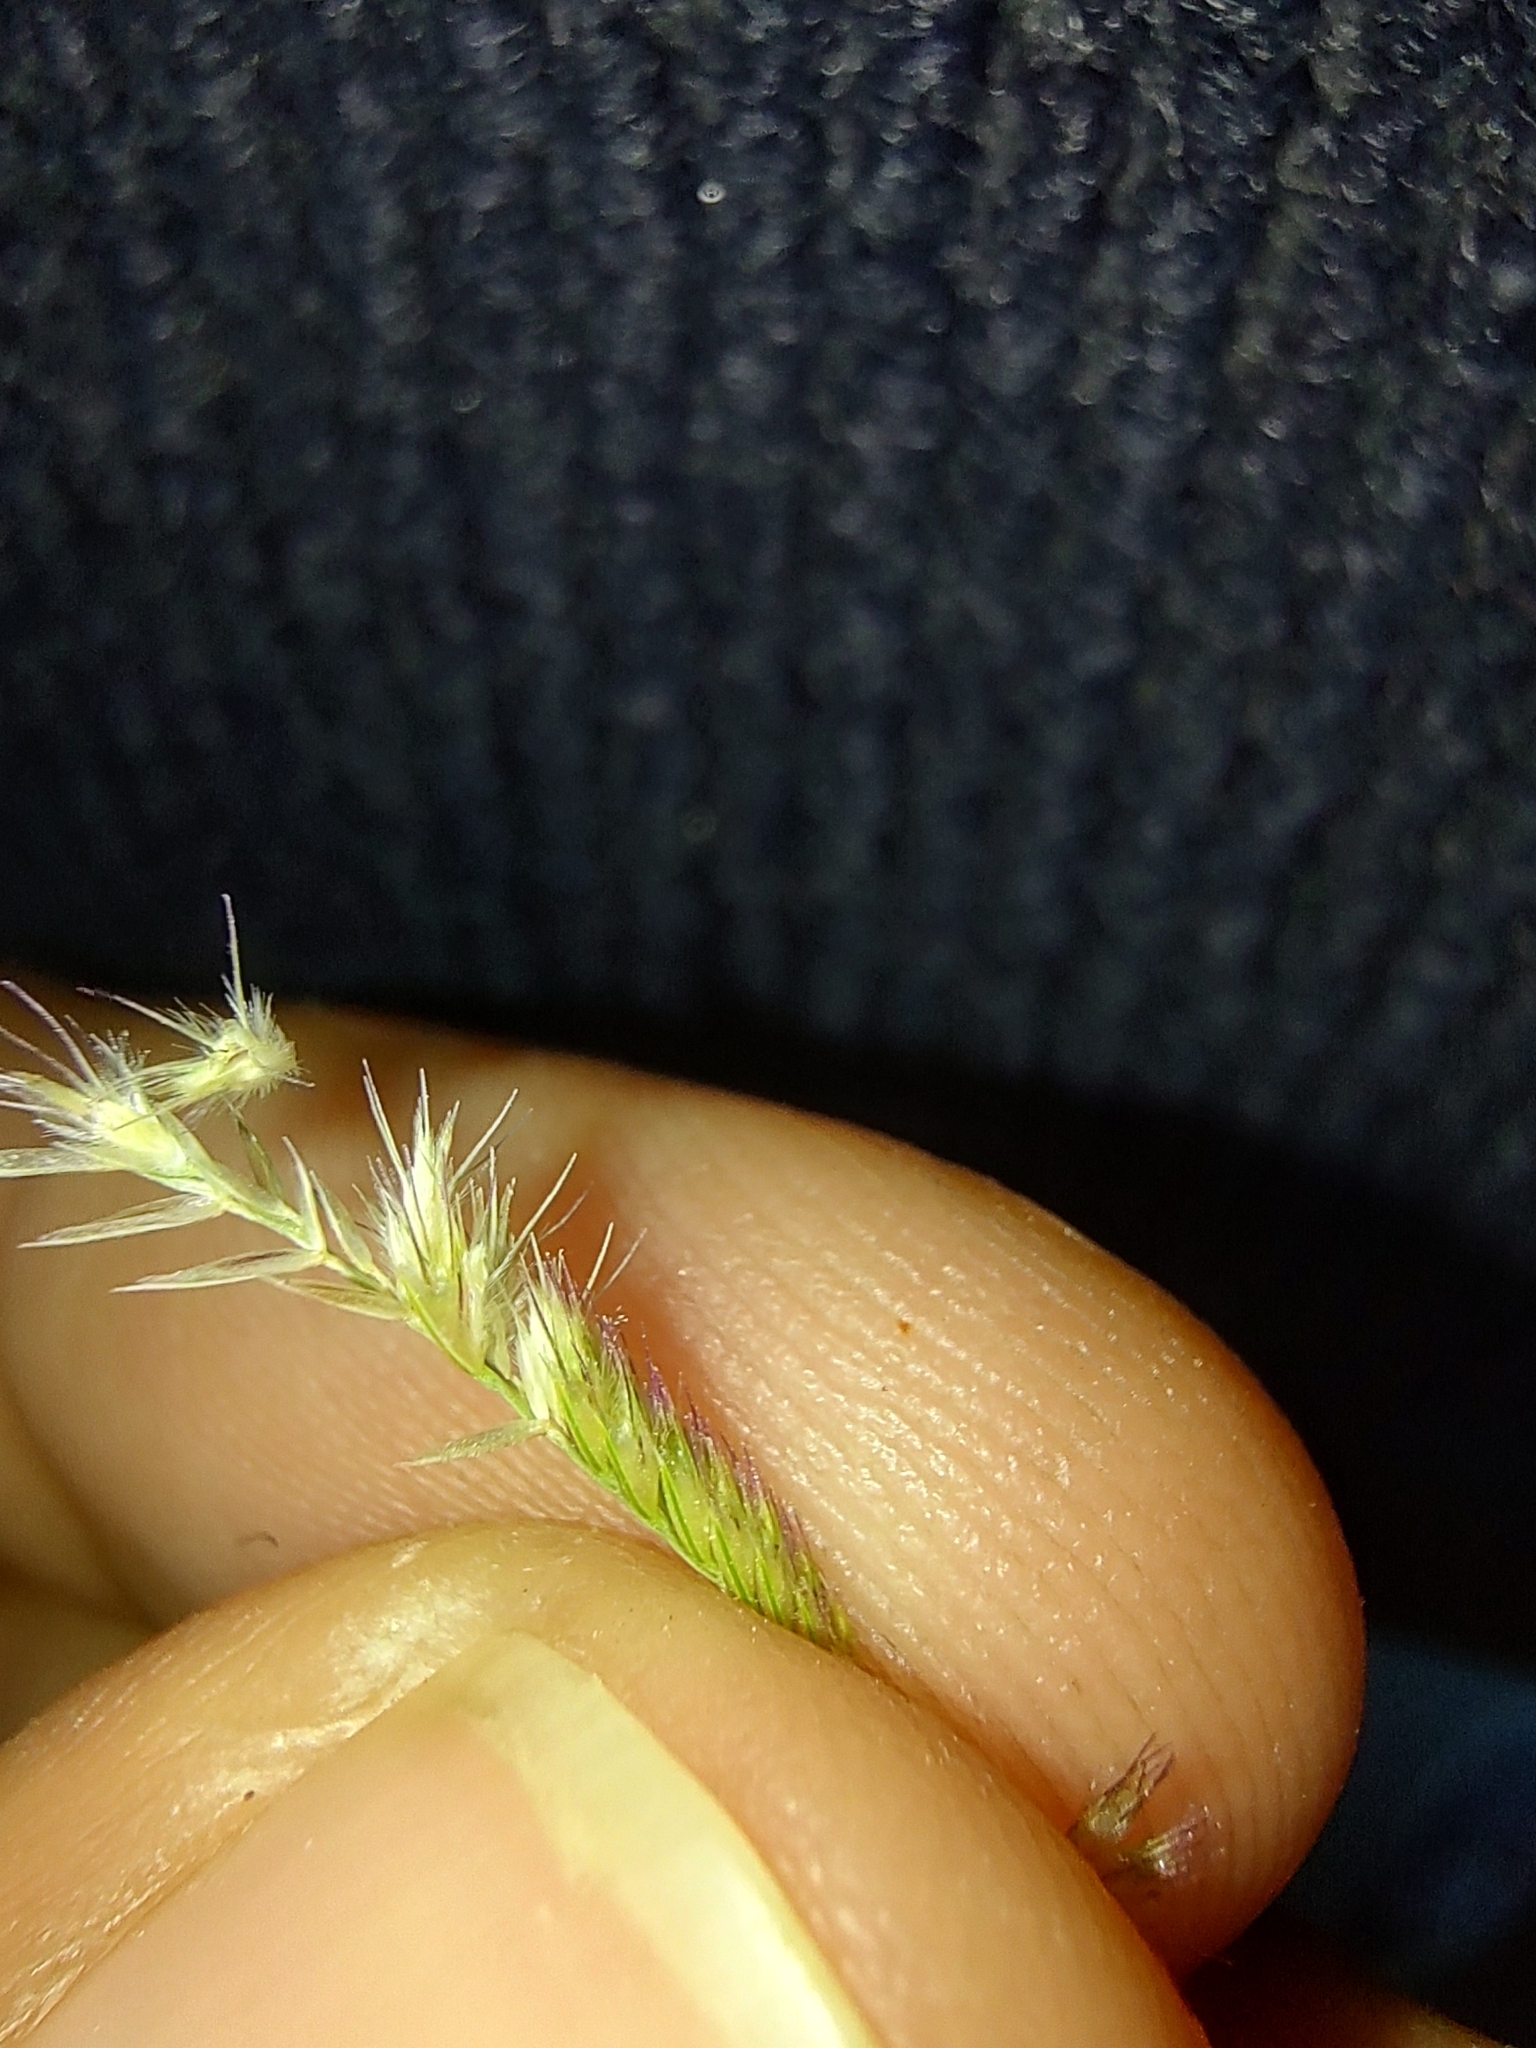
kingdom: Plantae
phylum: Tracheophyta
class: Liliopsida
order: Poales
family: Poaceae
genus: Bouteloua
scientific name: Bouteloua barbata
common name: Six-weeks grama
